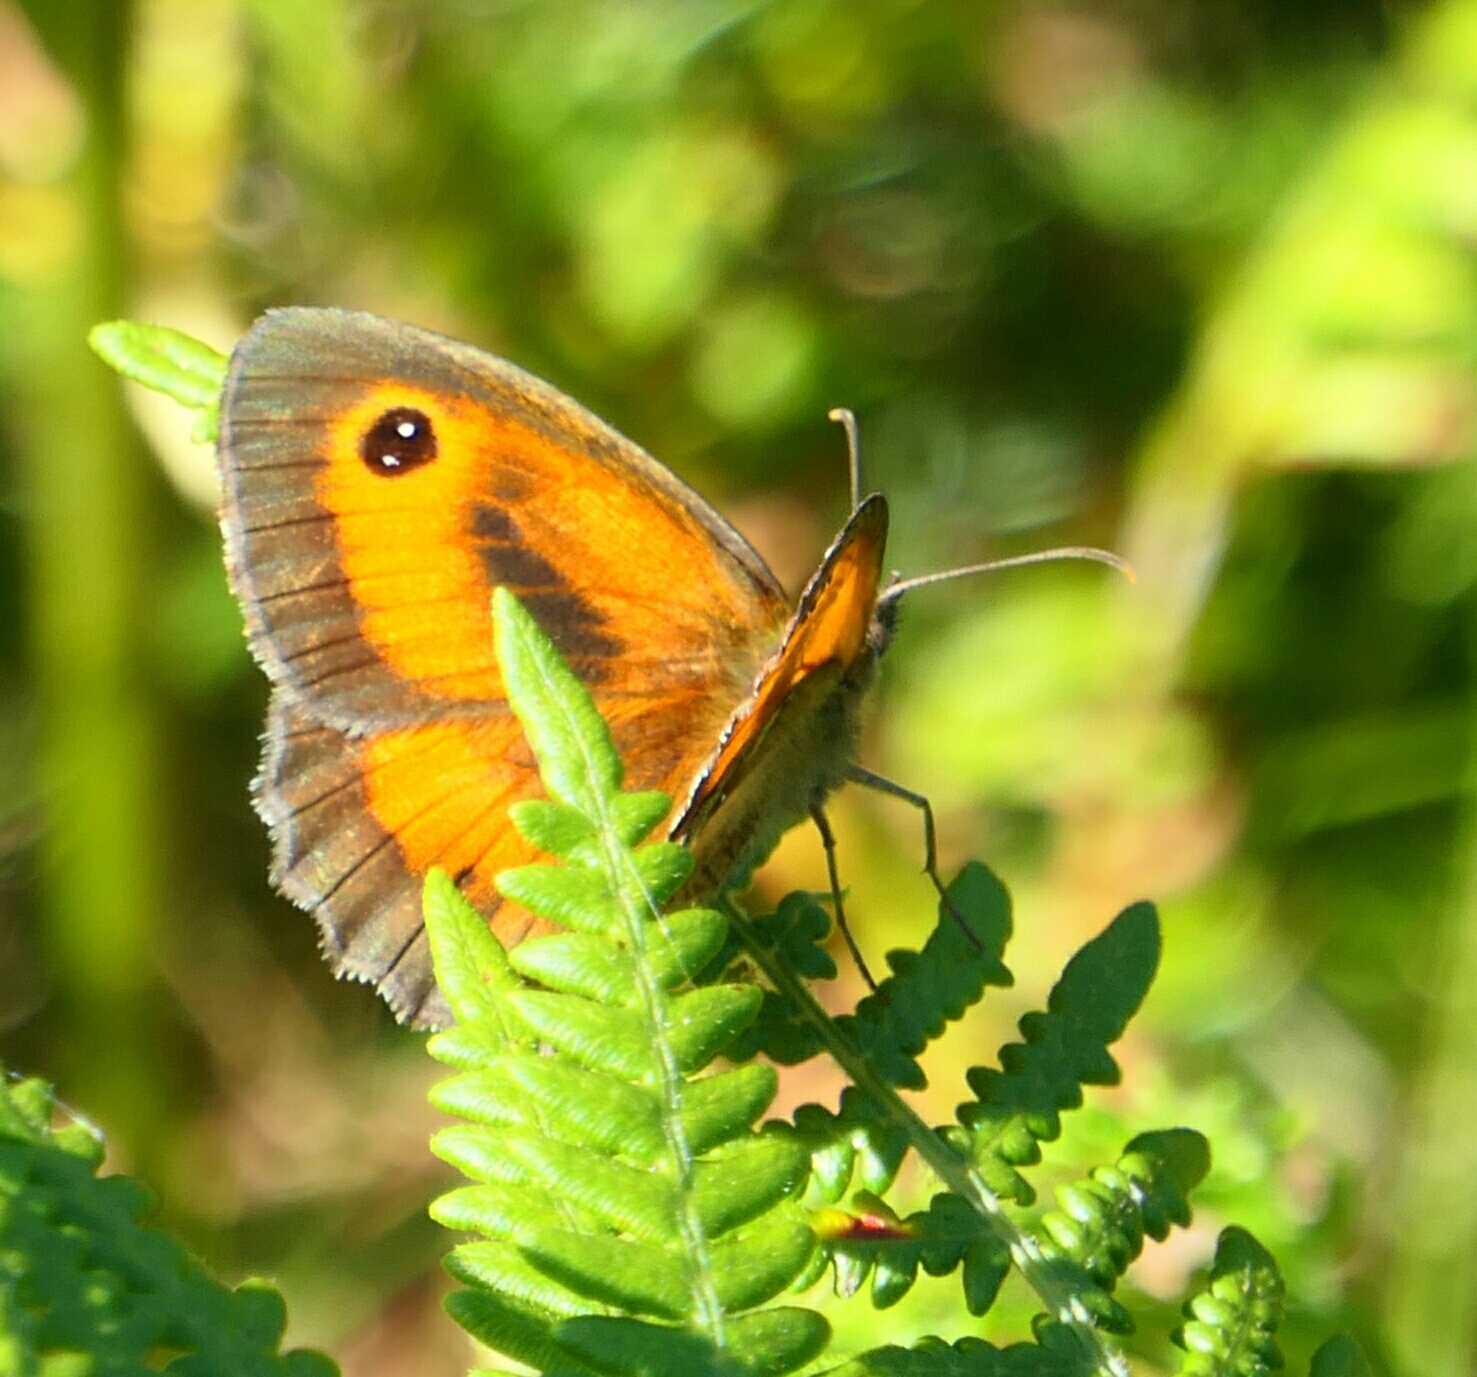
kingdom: Animalia
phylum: Arthropoda
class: Insecta
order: Lepidoptera
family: Nymphalidae
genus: Pyronia
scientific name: Pyronia tithonus
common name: Gatekeeper
